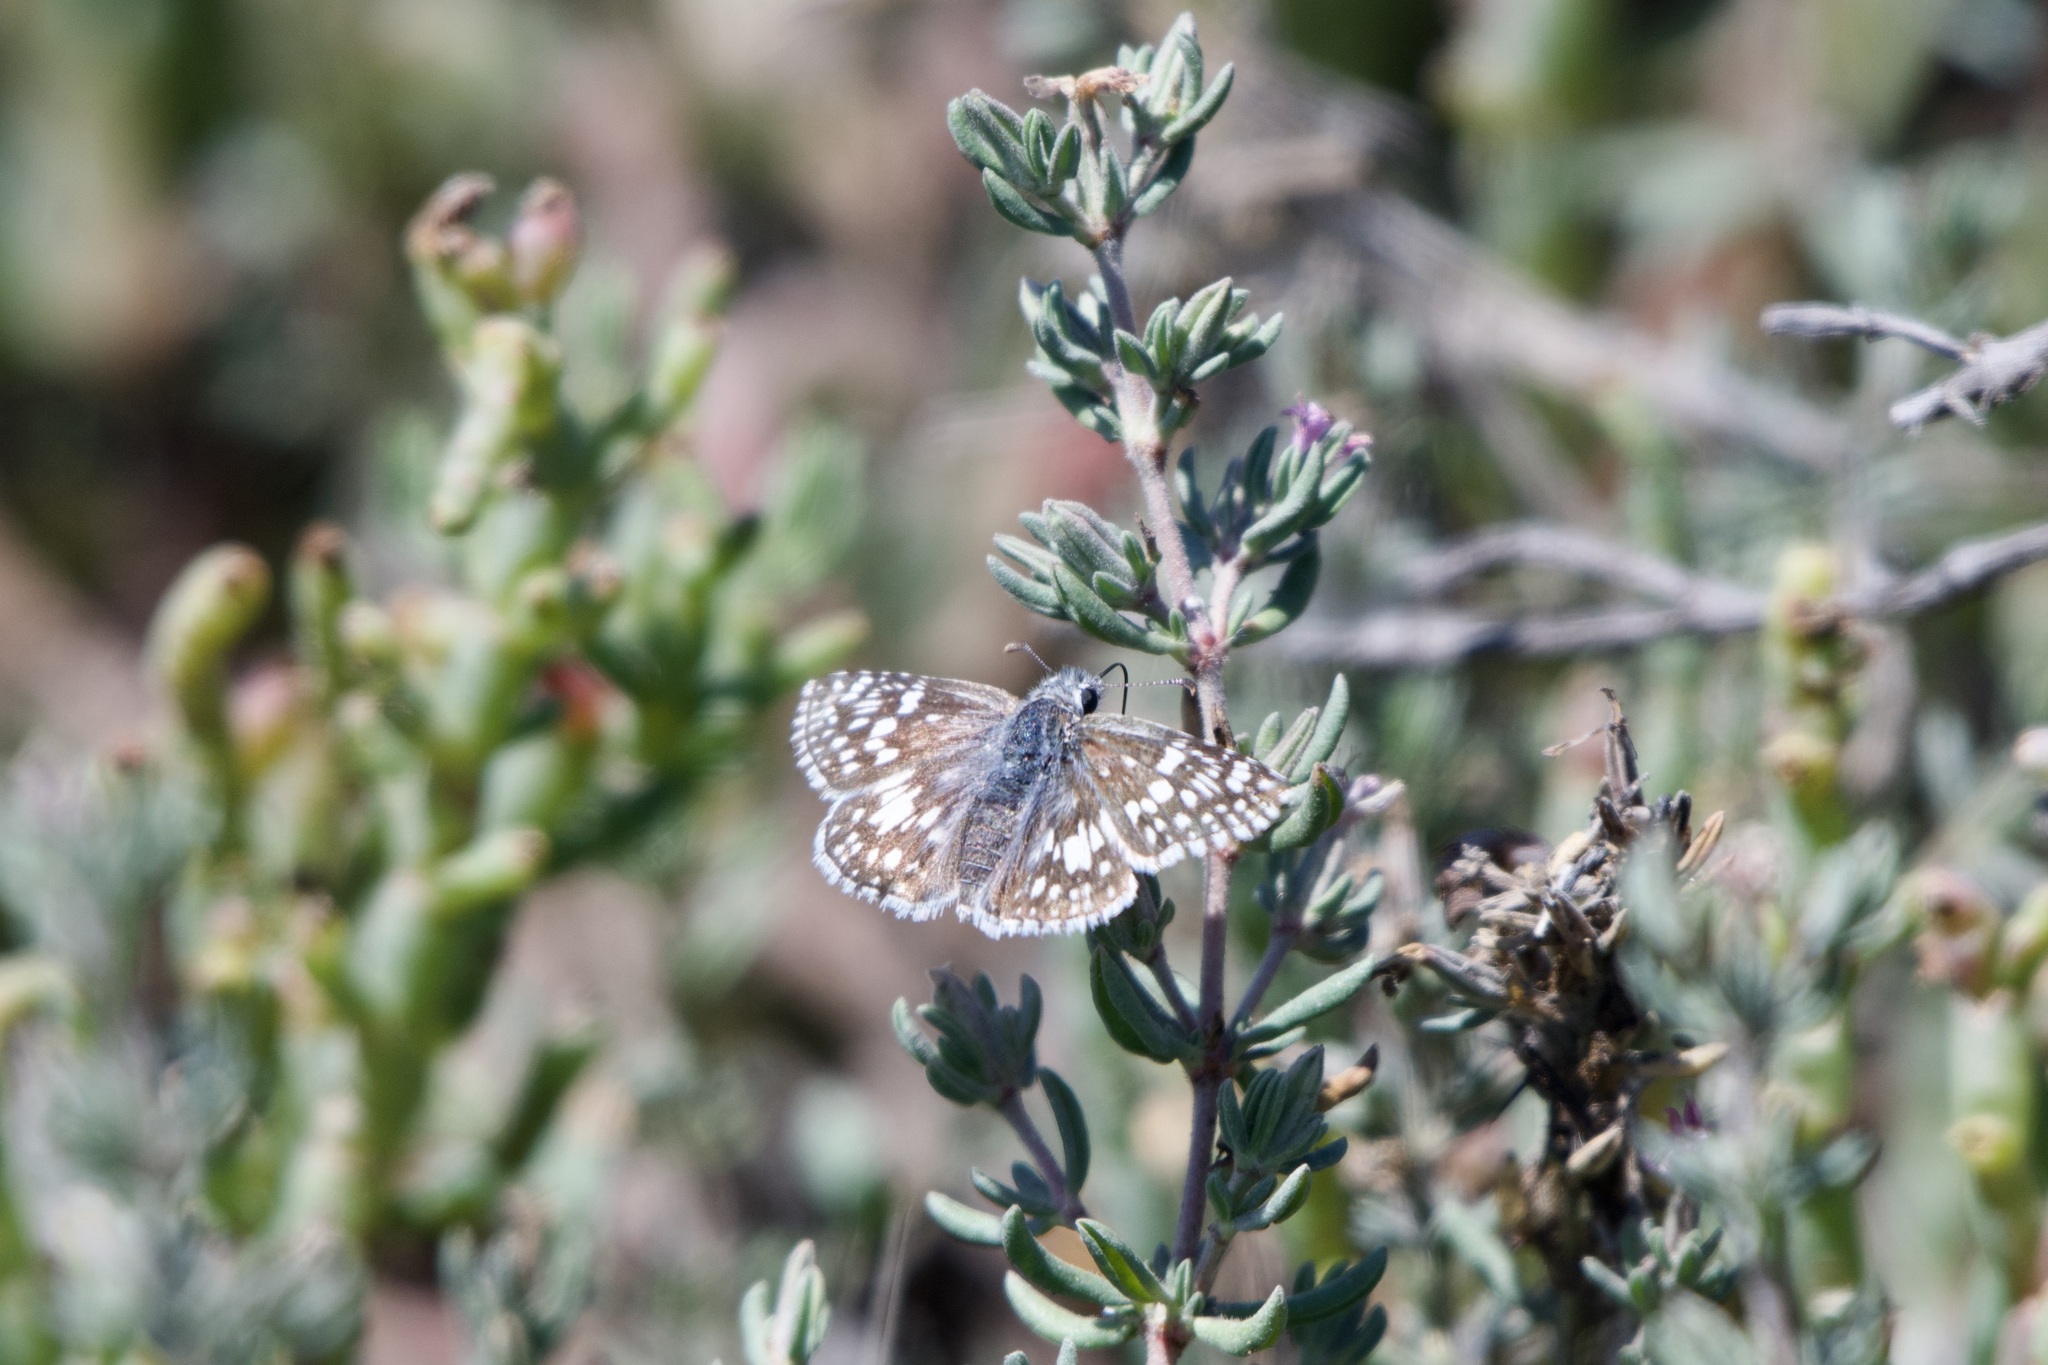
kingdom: Animalia
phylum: Arthropoda
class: Insecta
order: Lepidoptera
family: Hesperiidae
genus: Burnsius
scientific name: Burnsius communis
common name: Common checkered-skipper
